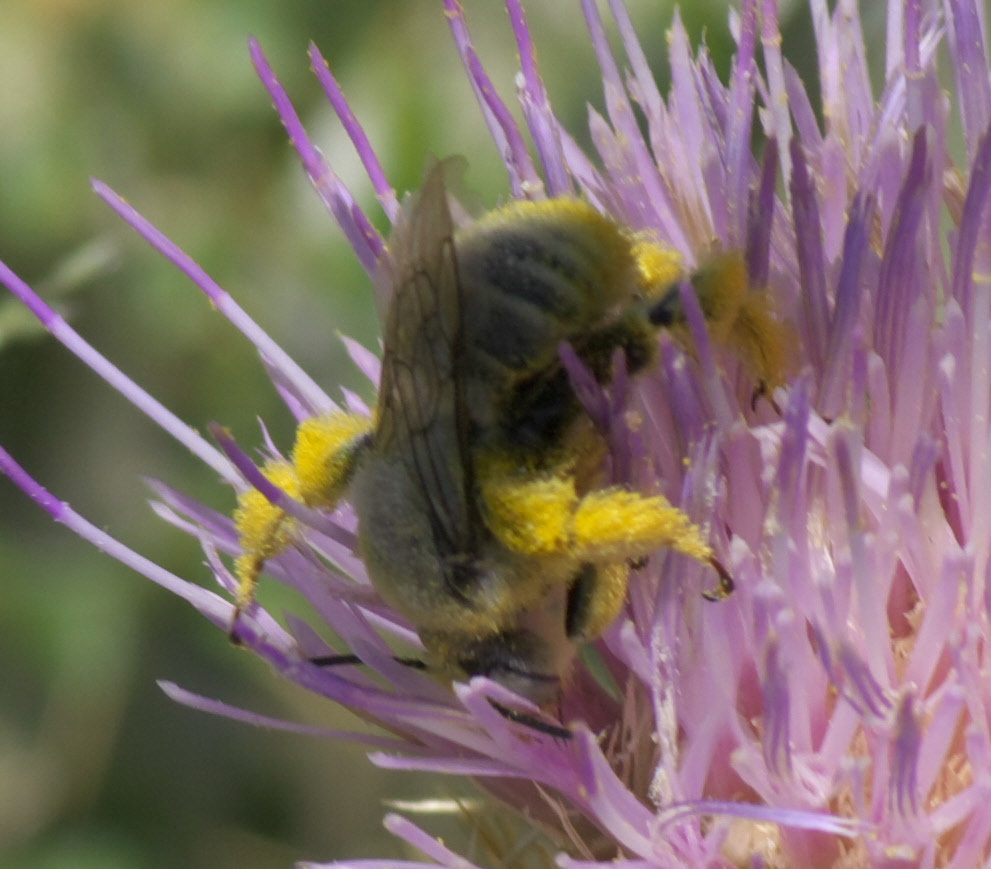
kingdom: Animalia
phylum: Arthropoda
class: Insecta
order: Hymenoptera
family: Apidae
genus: Diadasia
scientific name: Diadasia enavata
